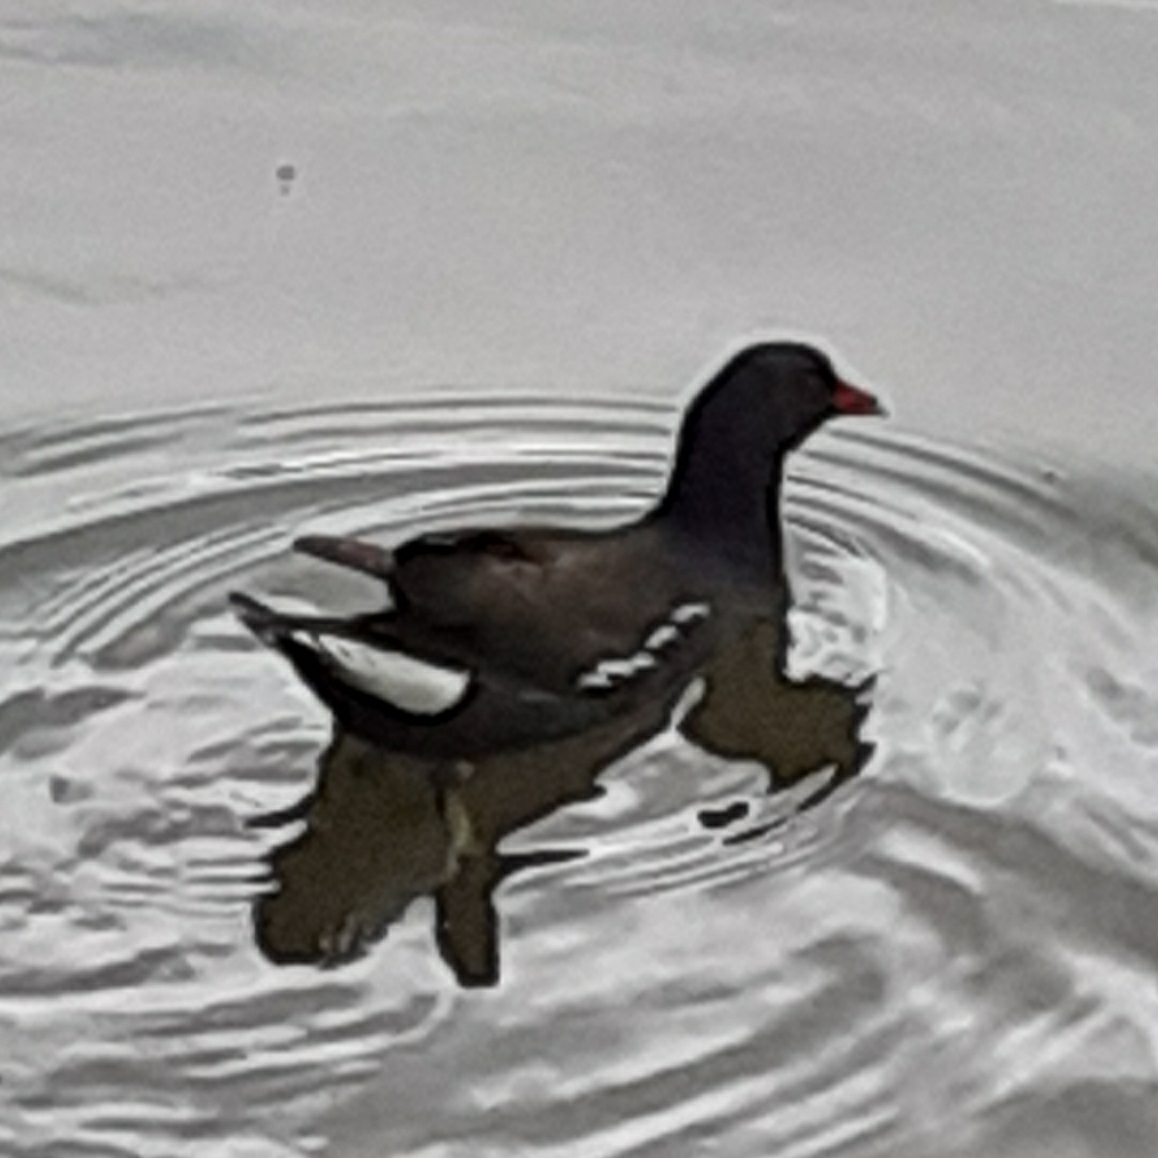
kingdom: Animalia
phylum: Chordata
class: Aves
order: Gruiformes
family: Rallidae
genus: Gallinula
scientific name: Gallinula chloropus
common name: Common moorhen
